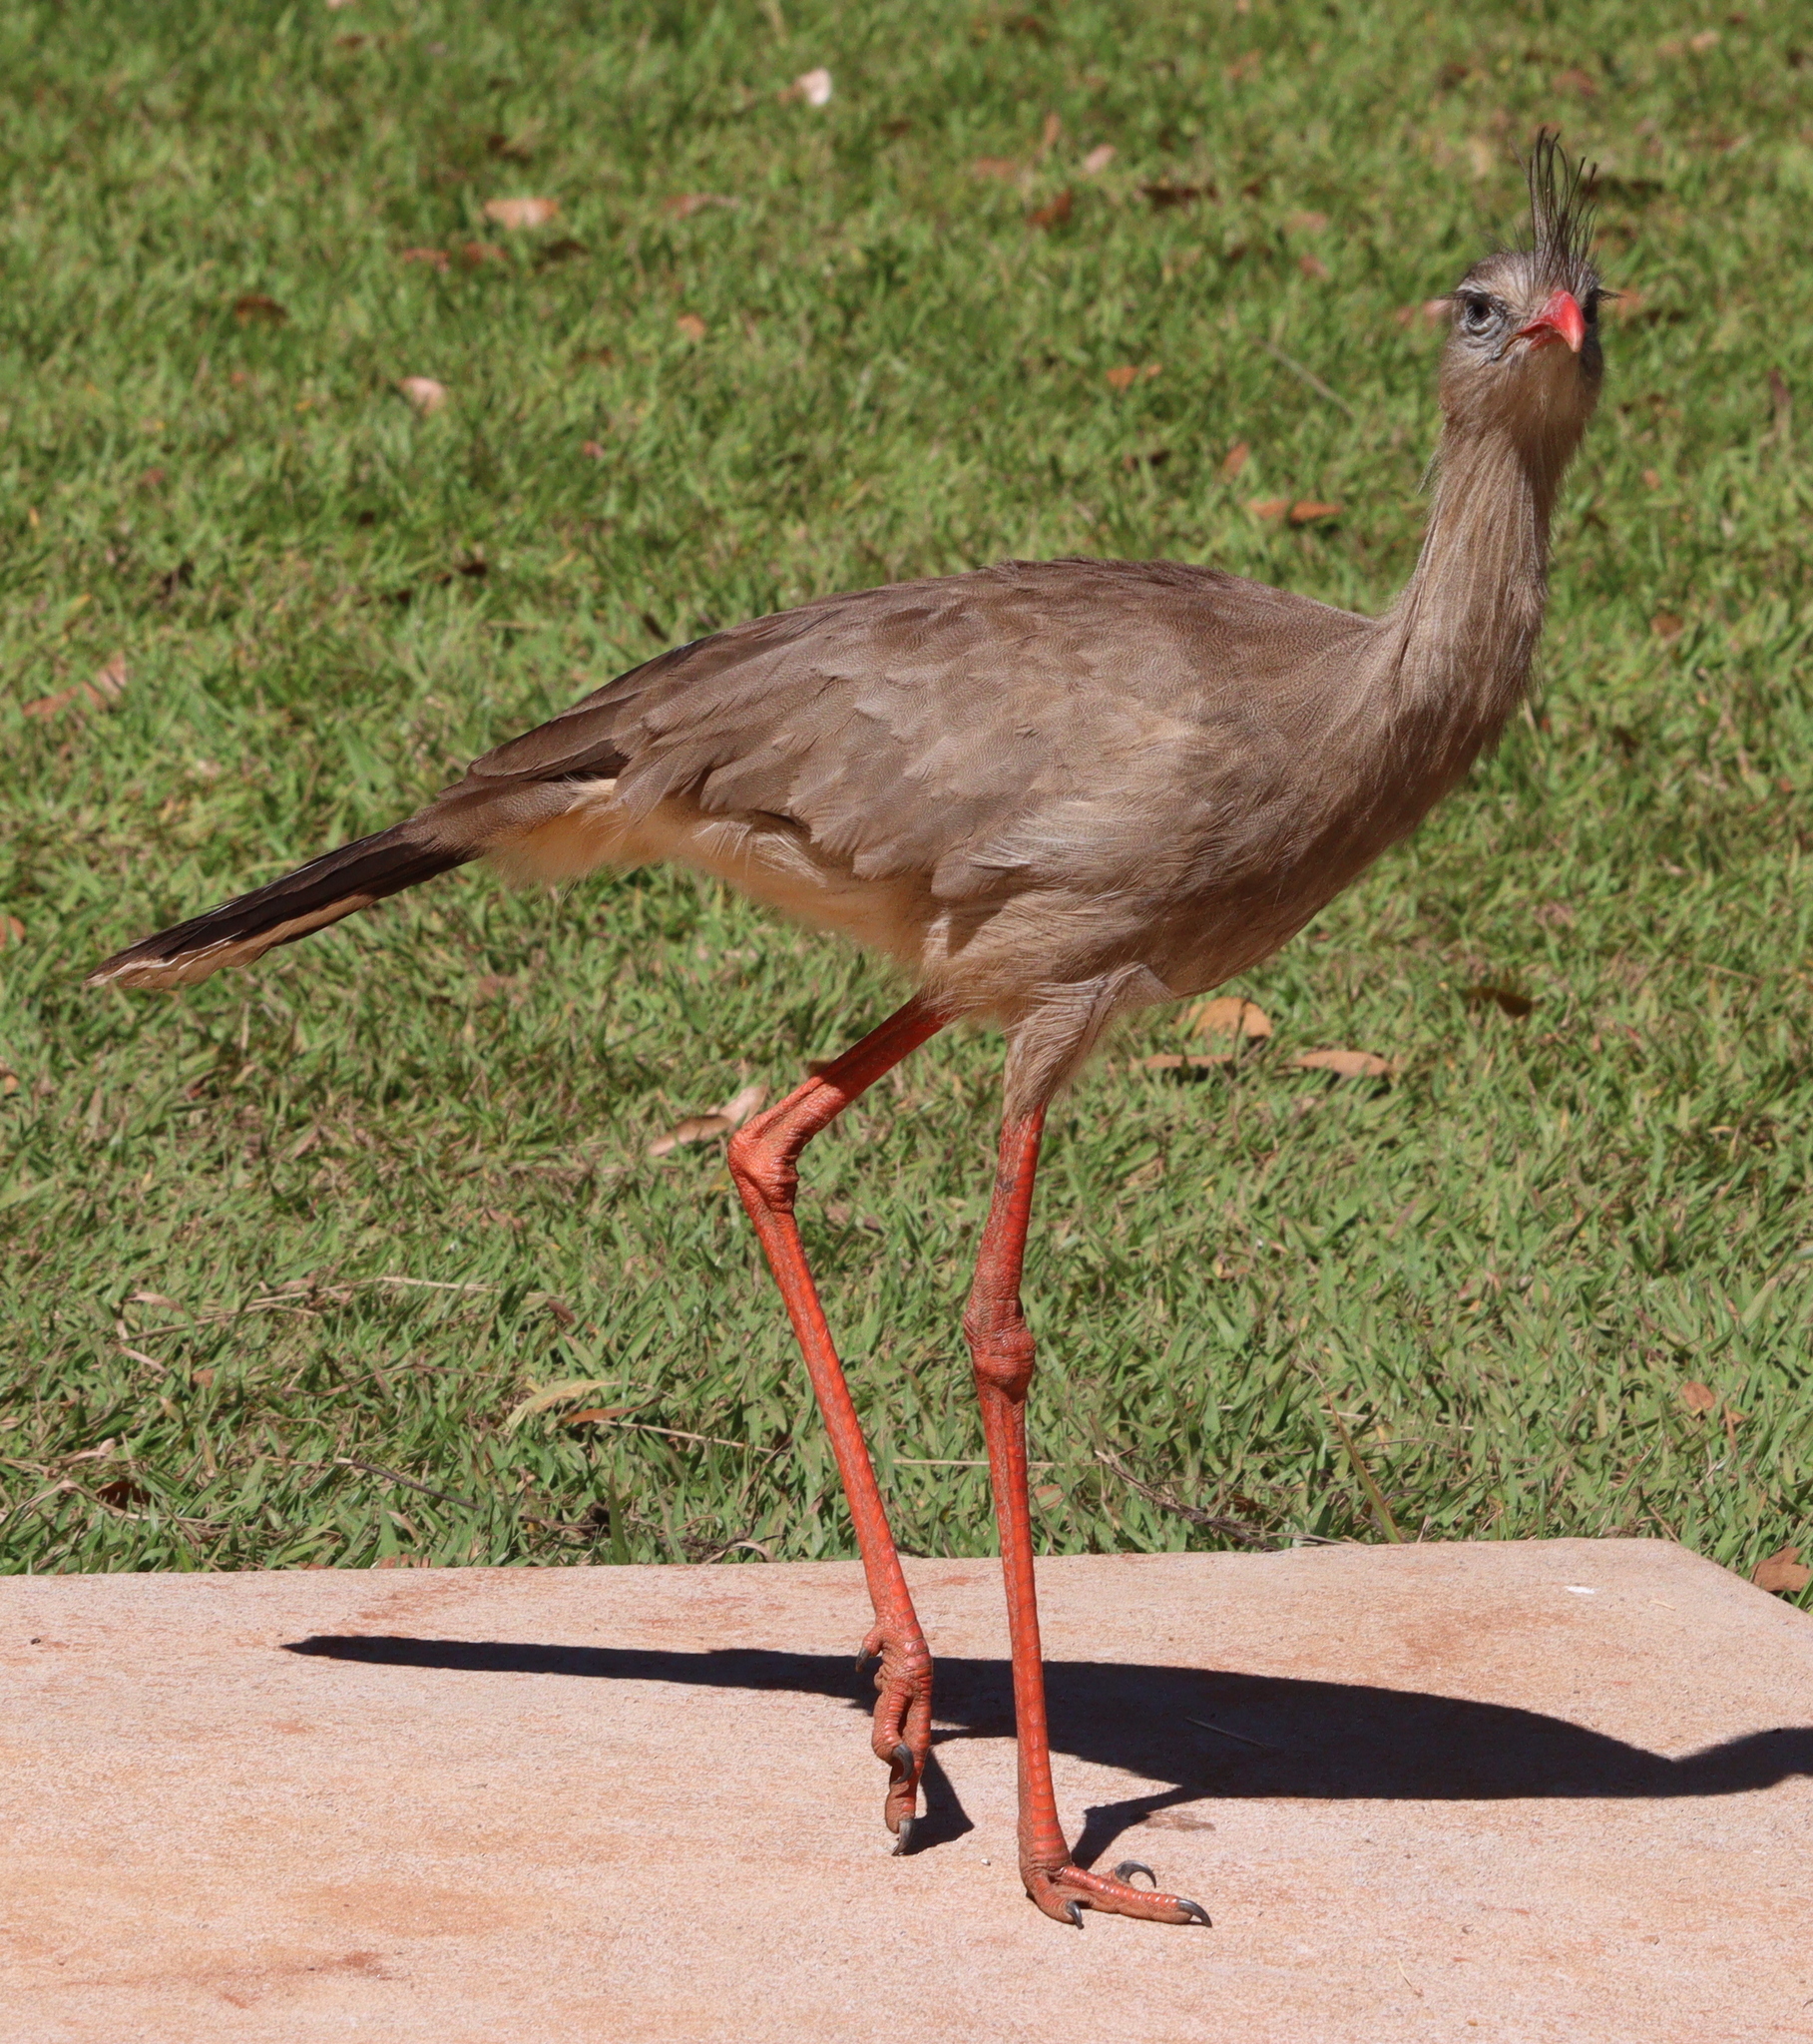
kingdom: Animalia
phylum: Chordata
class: Aves
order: Cariamiformes
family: Cariamidae
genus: Cariama
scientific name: Cariama cristata
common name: Red-legged seriema
